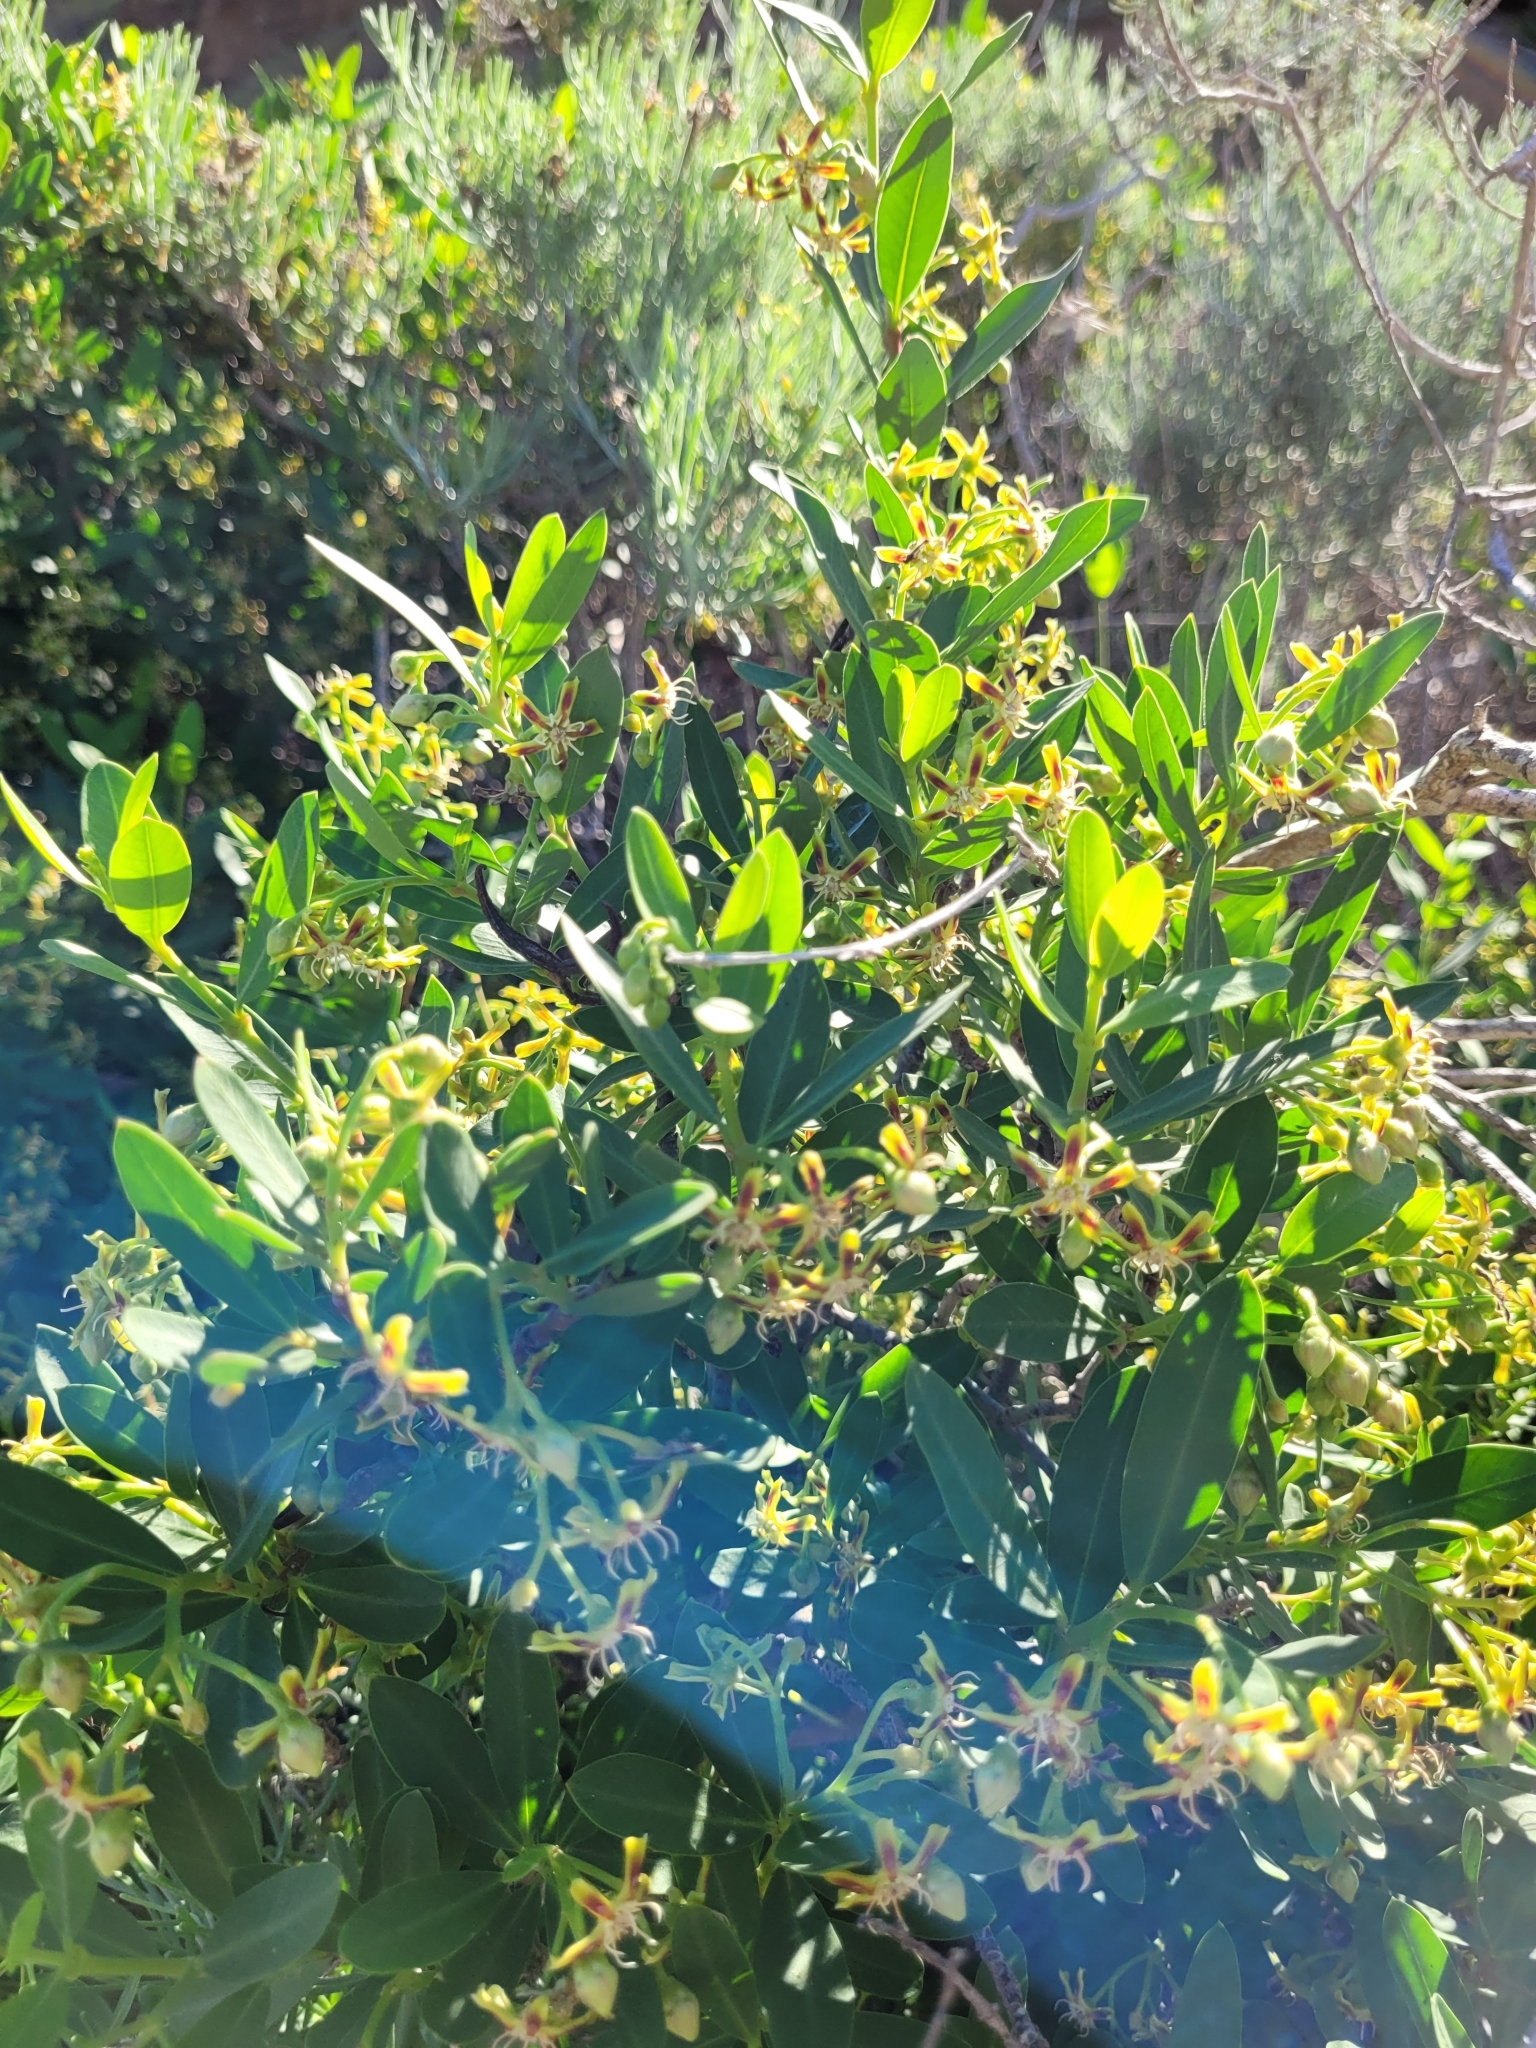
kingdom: Plantae
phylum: Tracheophyta
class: Magnoliopsida
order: Gentianales
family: Apocynaceae
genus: Periploca
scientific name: Periploca laevigata
